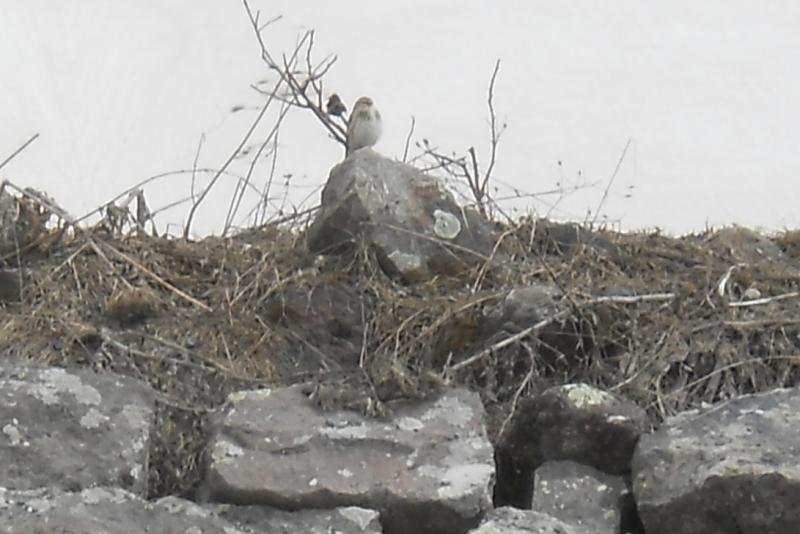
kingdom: Animalia
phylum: Chordata
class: Aves
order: Passeriformes
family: Fringillidae
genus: Linaria
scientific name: Linaria flavirostris
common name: Twite
